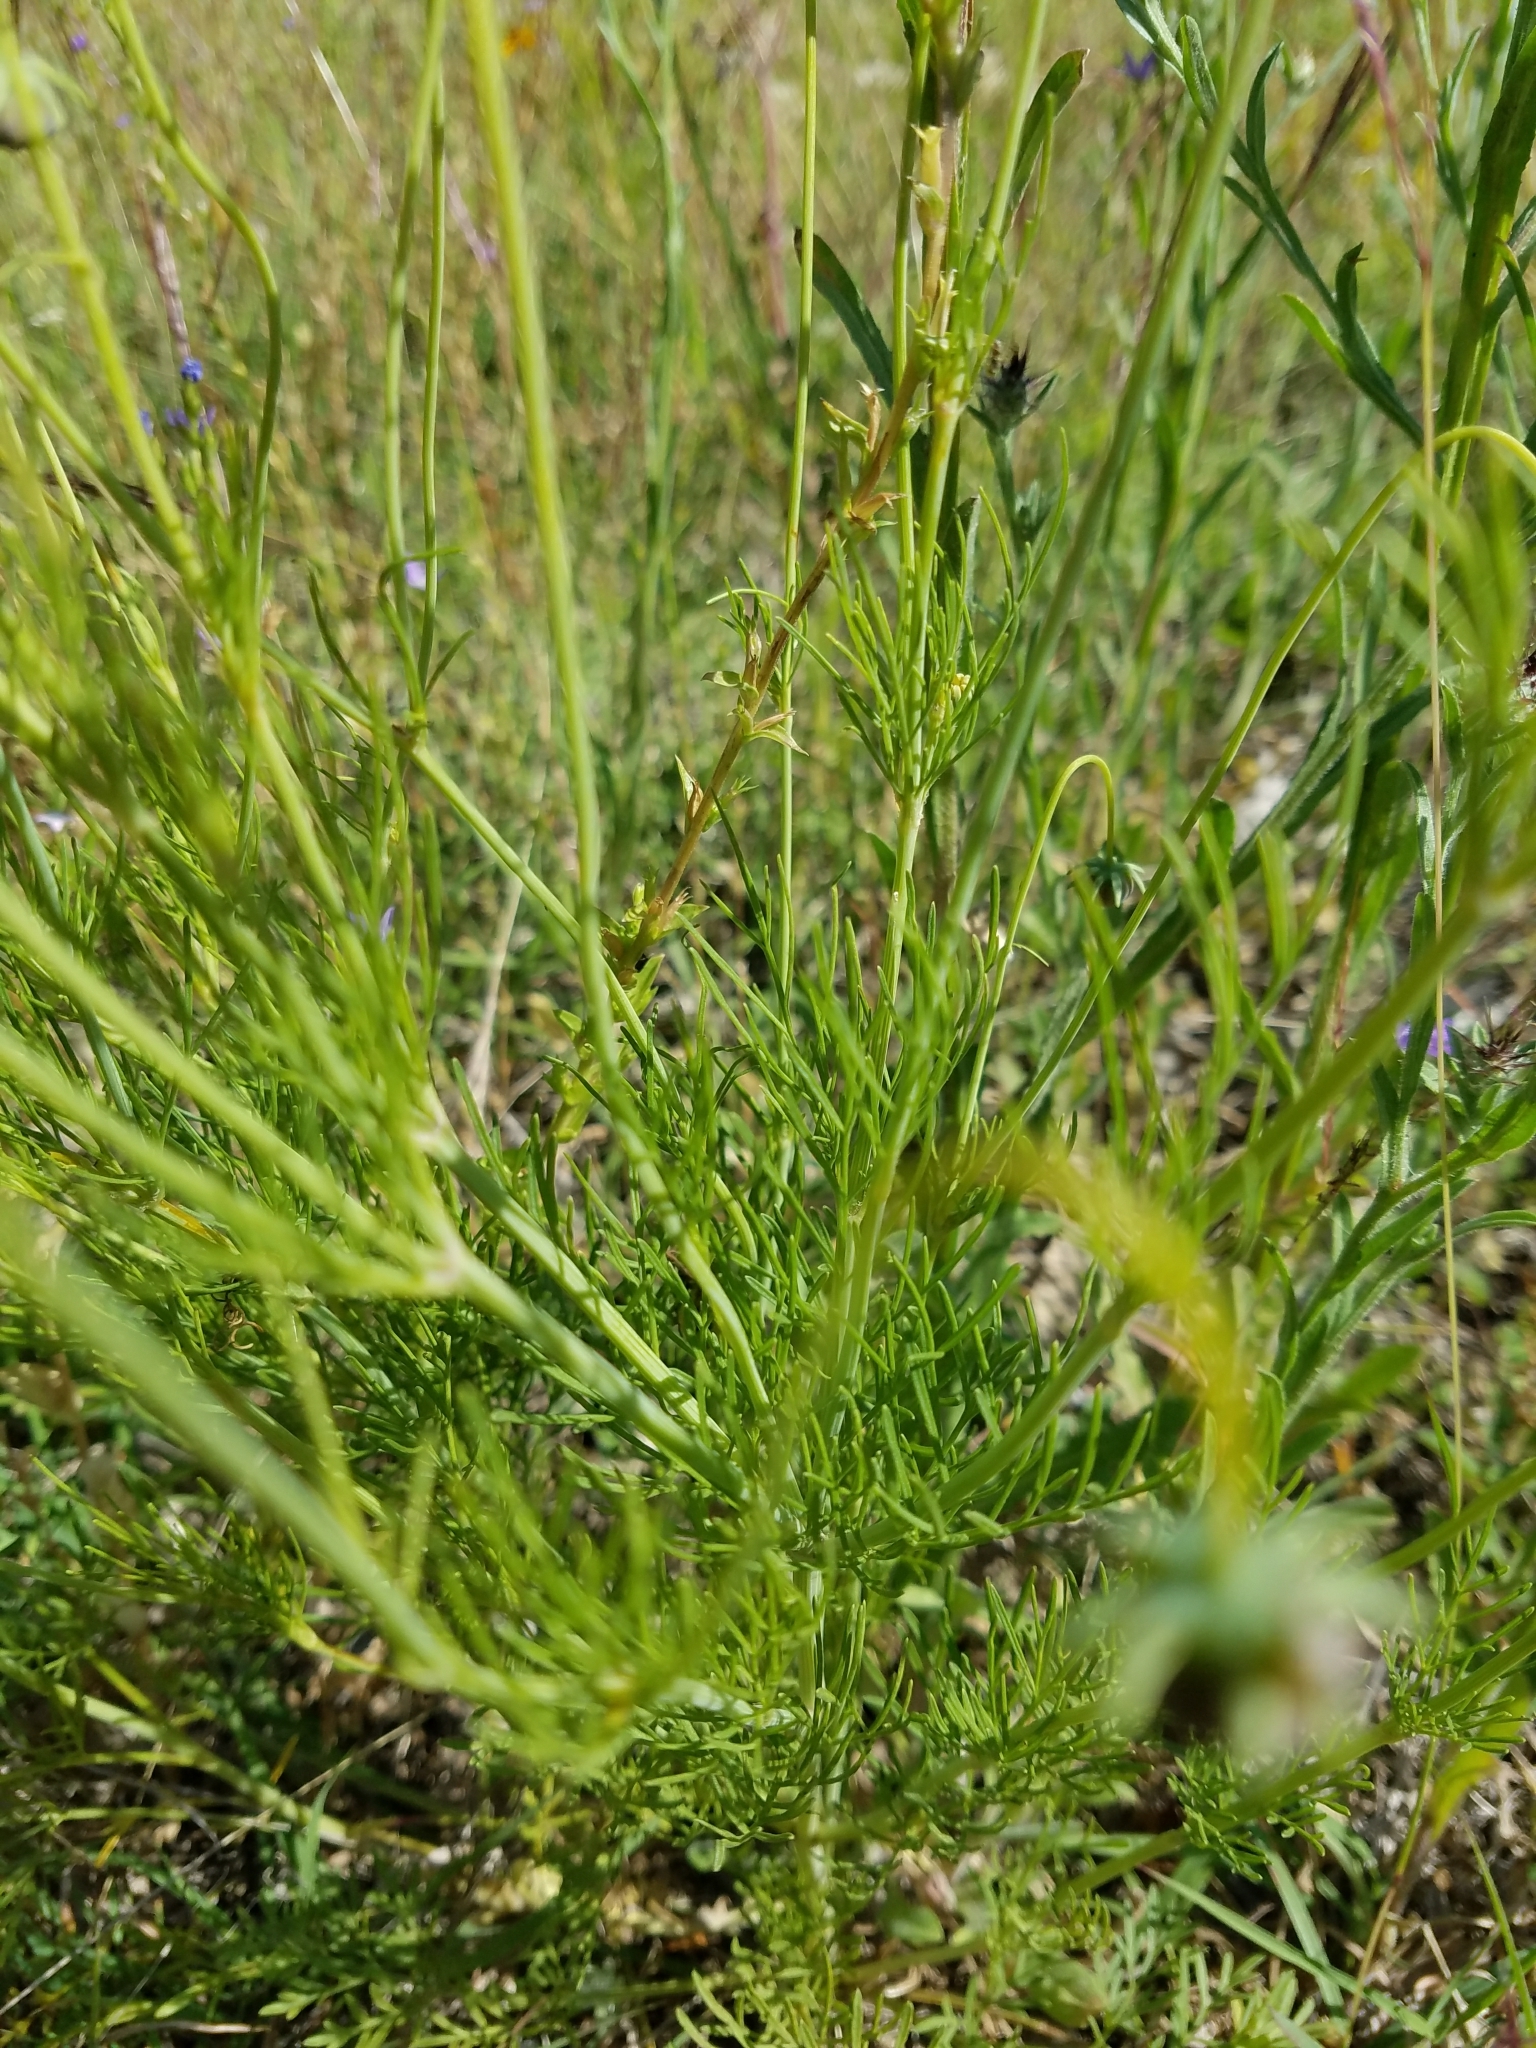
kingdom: Plantae
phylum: Tracheophyta
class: Magnoliopsida
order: Asterales
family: Asteraceae
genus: Thelesperma
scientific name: Thelesperma filifolium
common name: Stiff greenthread
